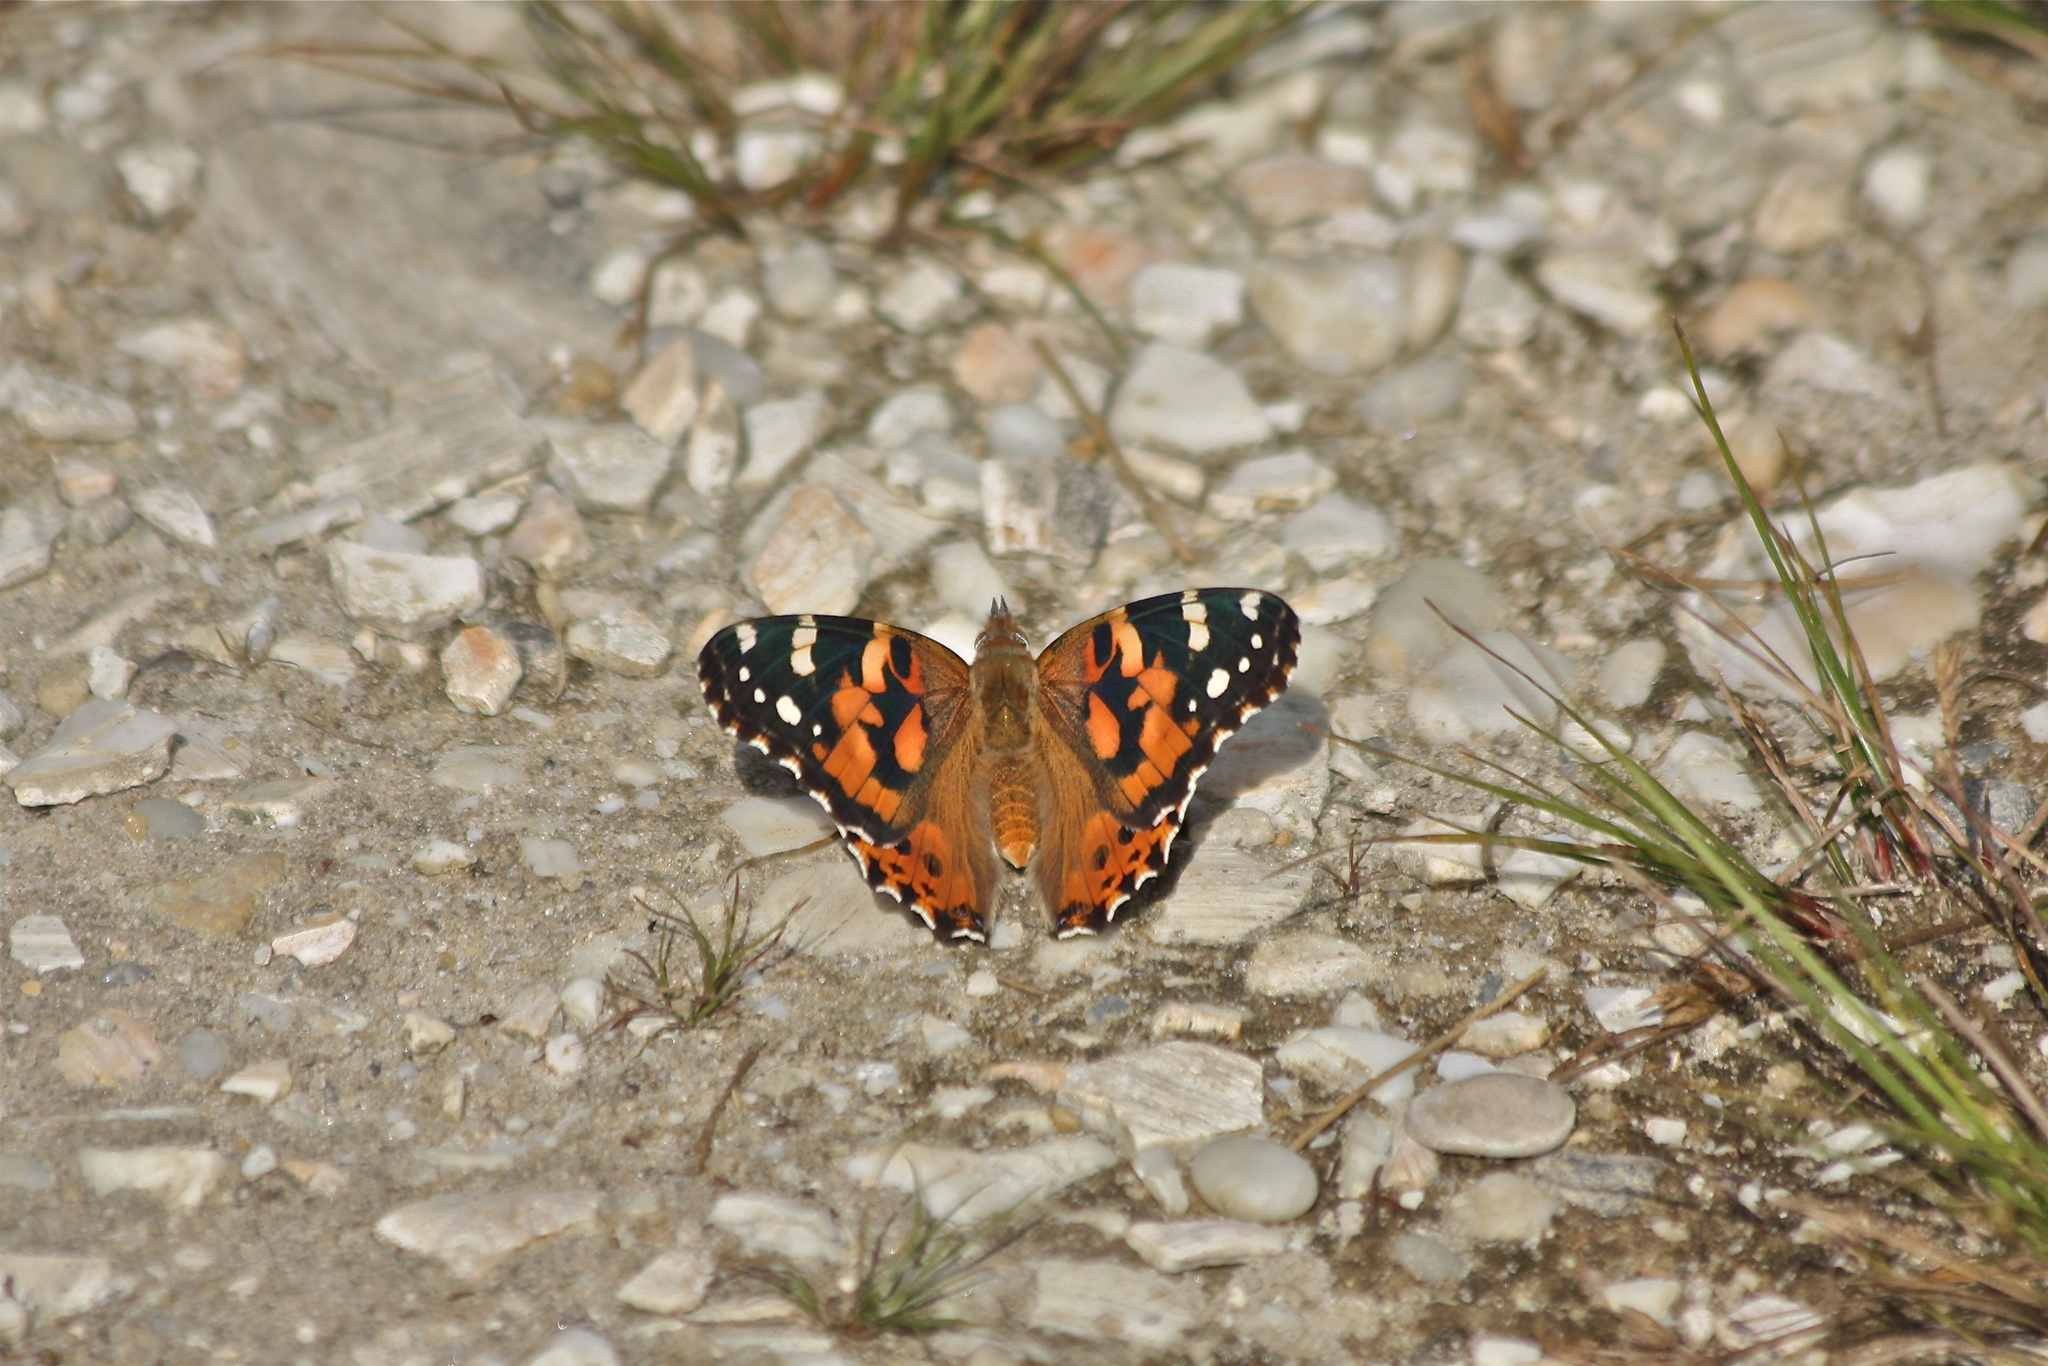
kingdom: Animalia
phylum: Arthropoda
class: Insecta
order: Lepidoptera
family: Nymphalidae
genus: Vanessa
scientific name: Vanessa cardui
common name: Painted lady
